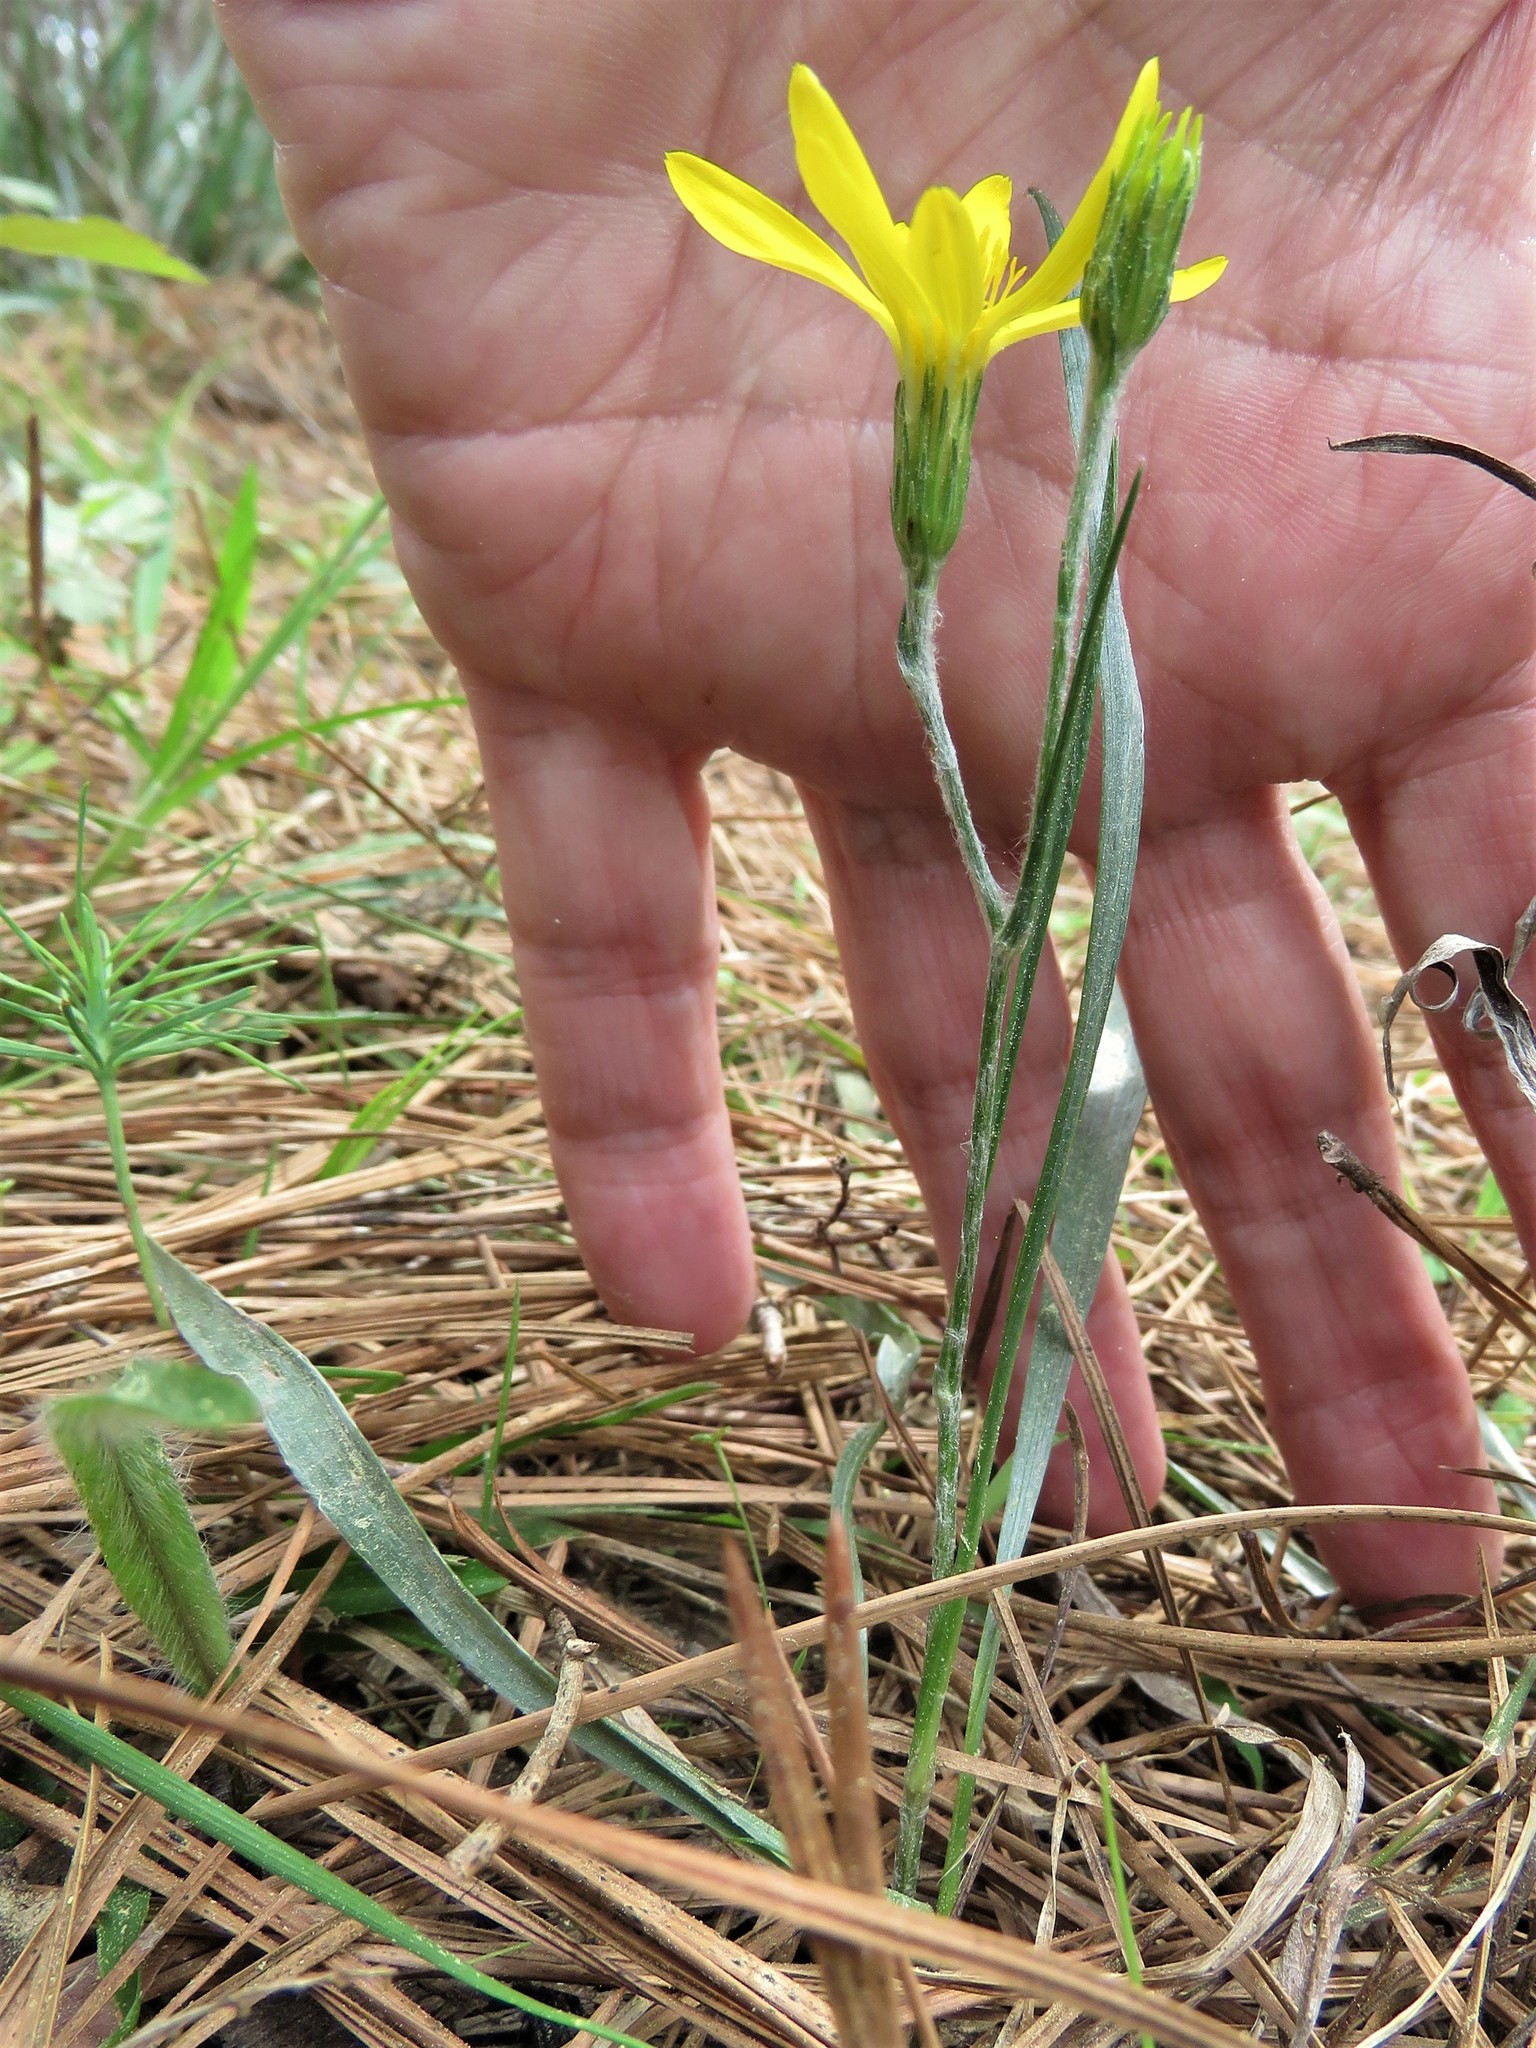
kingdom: Plantae
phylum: Tracheophyta
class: Magnoliopsida
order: Asterales
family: Asteraceae
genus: Pityopsis
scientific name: Pityopsis graminifolia
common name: Grass-leaf golden-aster
